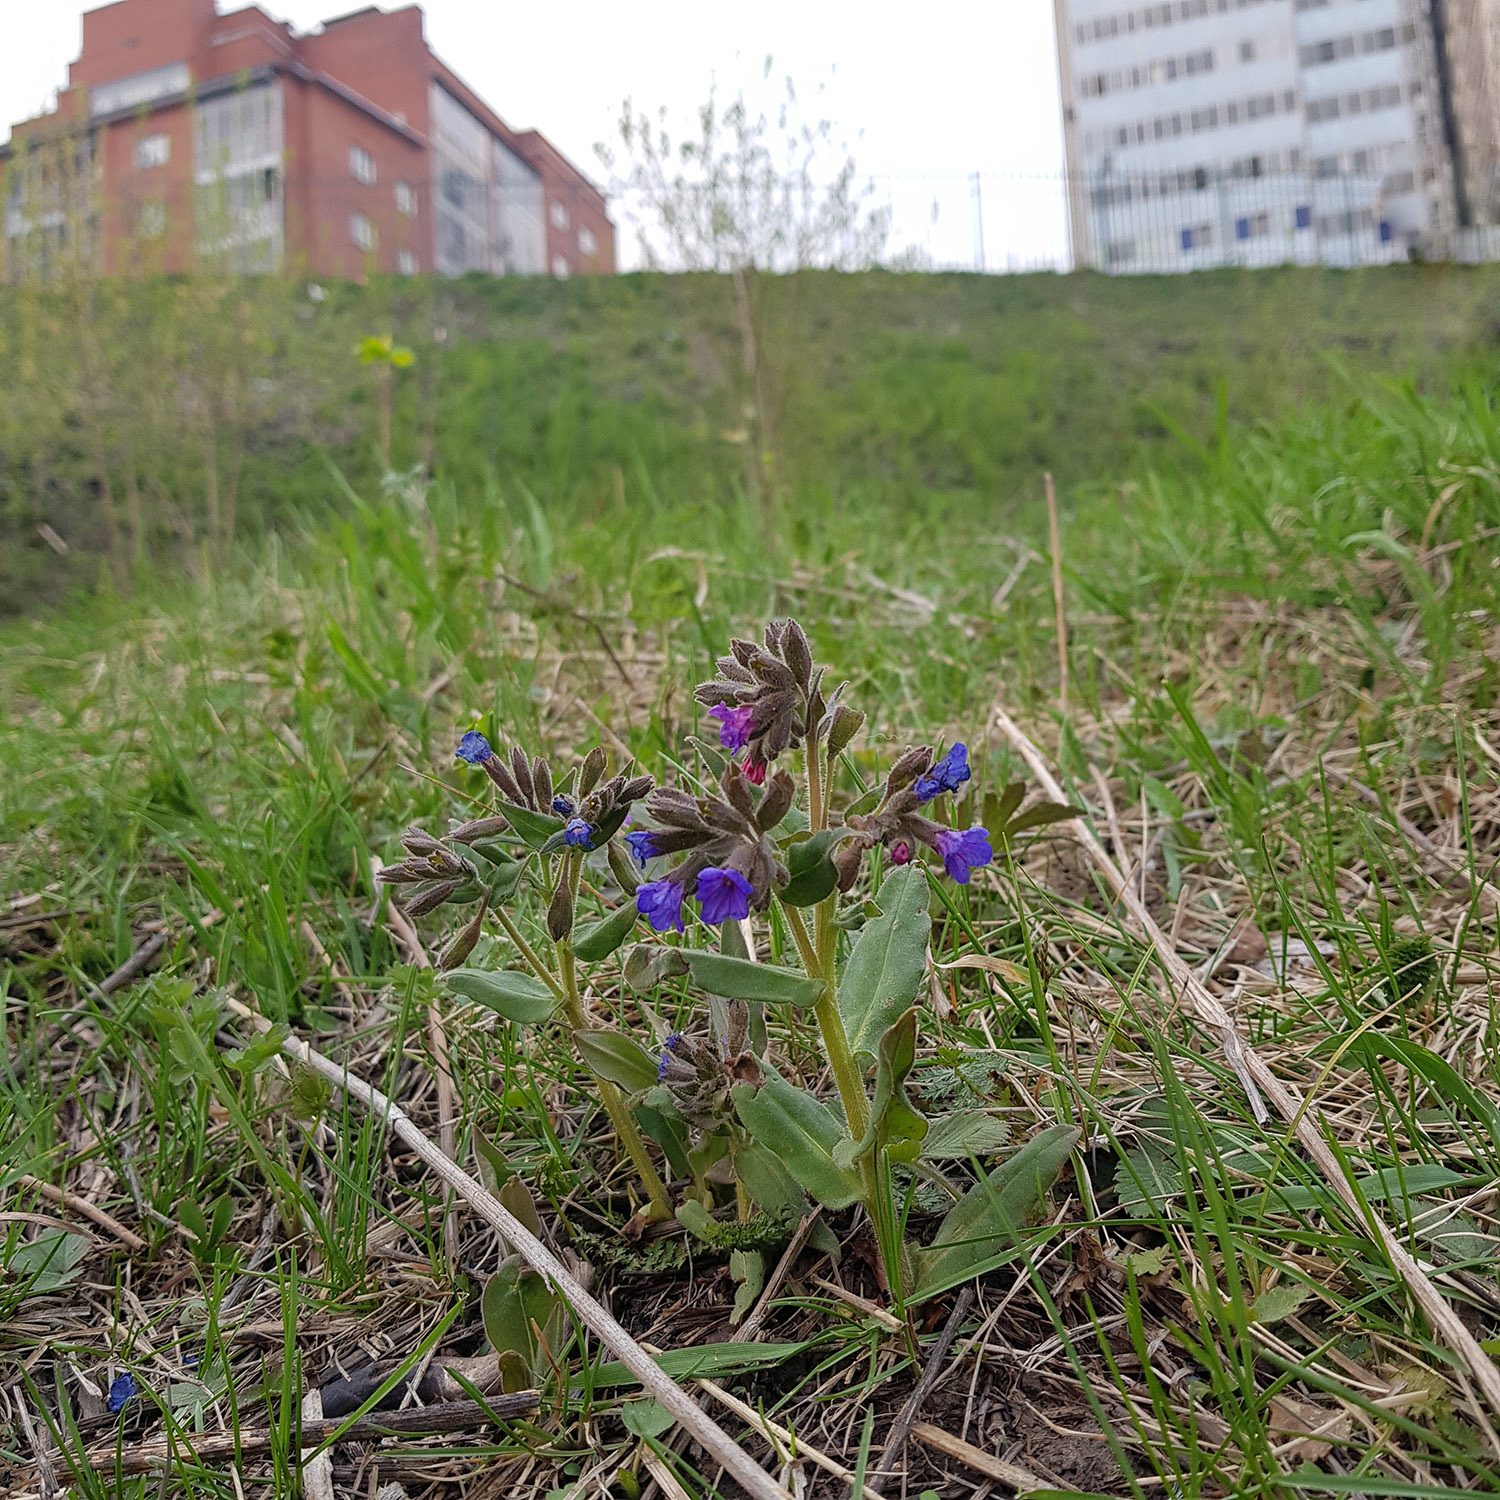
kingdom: Plantae
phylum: Tracheophyta
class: Magnoliopsida
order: Boraginales
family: Boraginaceae
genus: Pulmonaria
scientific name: Pulmonaria mollis
